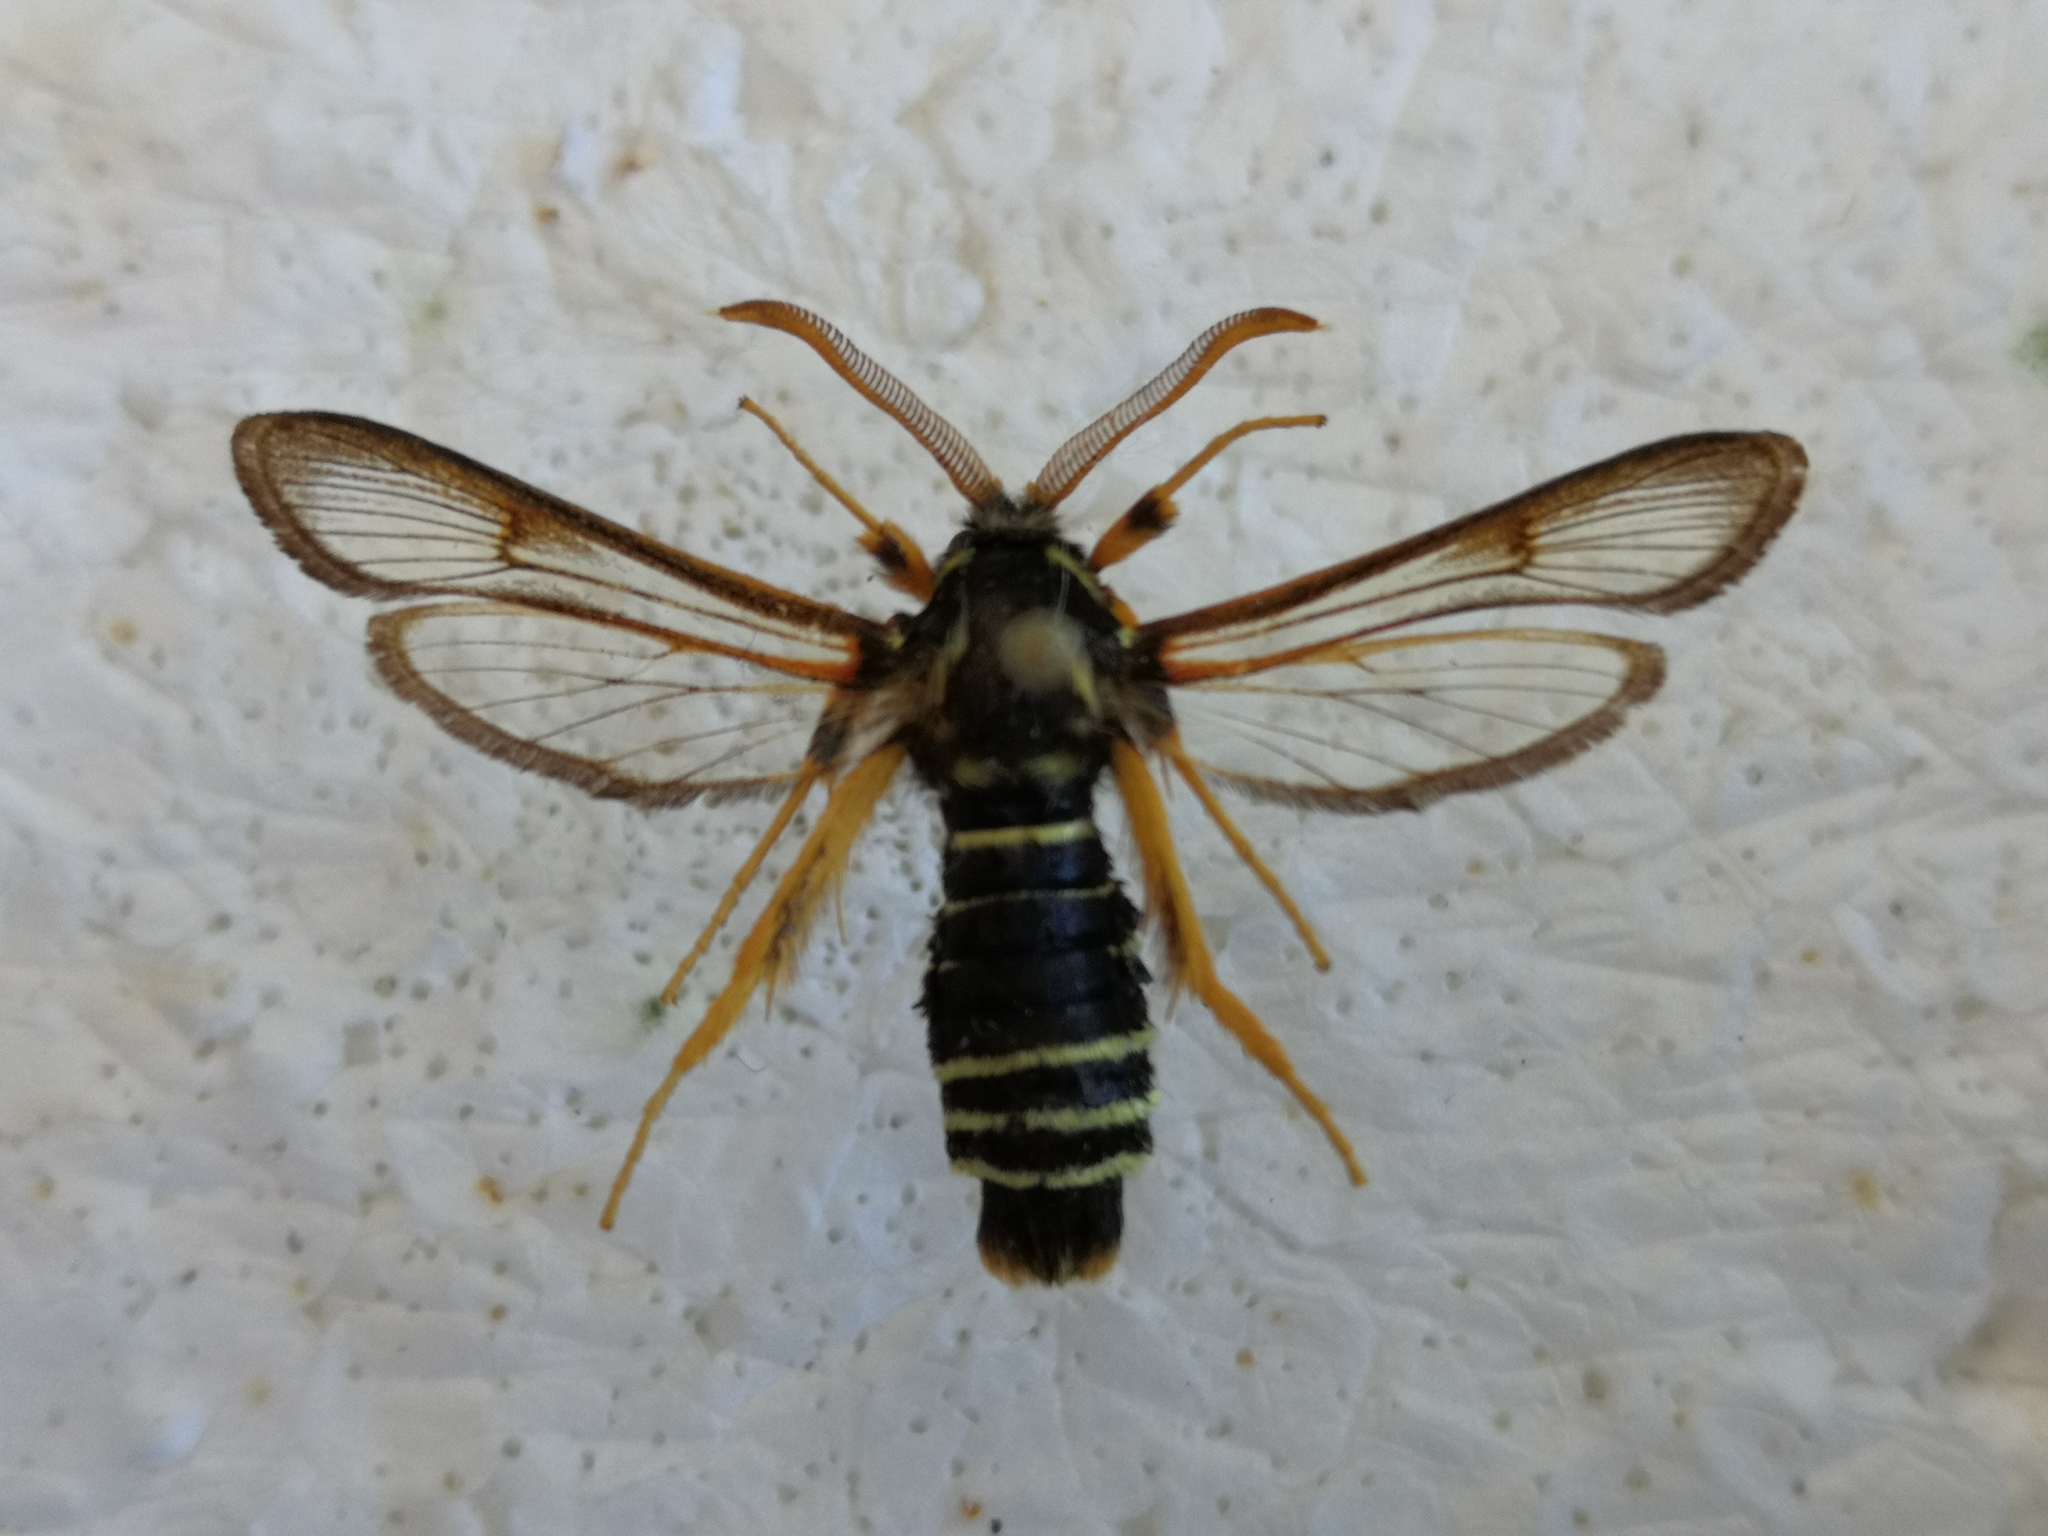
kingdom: Animalia
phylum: Arthropoda
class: Insecta
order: Lepidoptera
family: Sesiidae
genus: Eusphecia
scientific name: Eusphecia melanocephala
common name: Aspen clearwing
